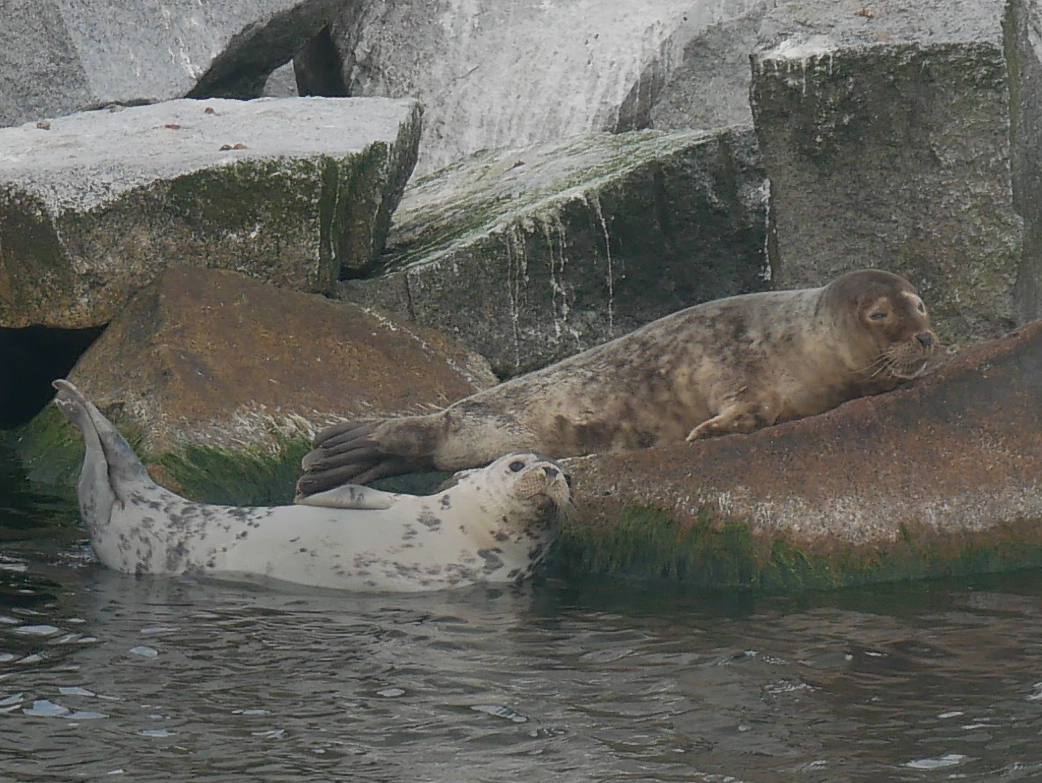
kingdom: Animalia
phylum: Chordata
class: Mammalia
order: Carnivora
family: Phocidae
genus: Halichoerus
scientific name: Halichoerus grypus
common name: Grey seal
